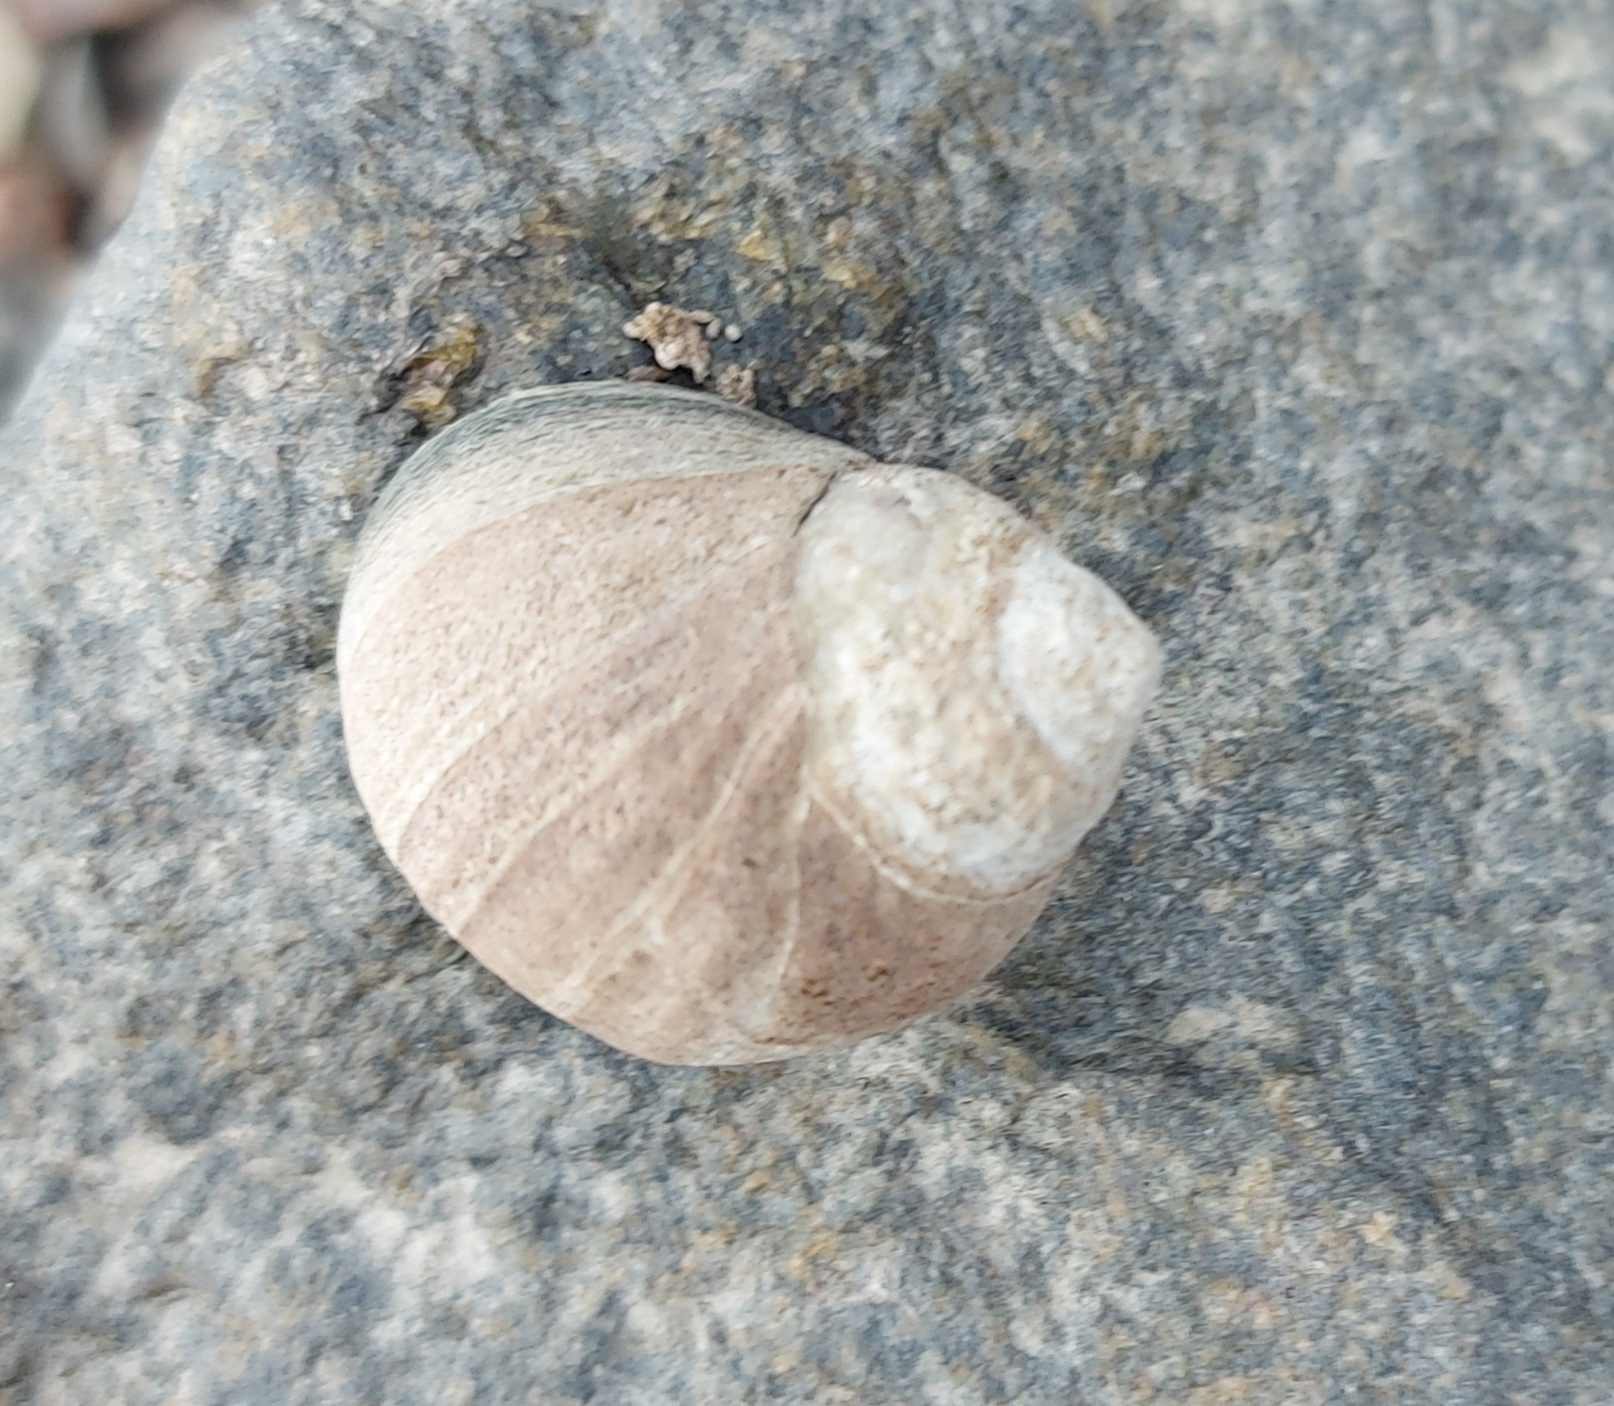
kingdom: Animalia
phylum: Mollusca
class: Gastropoda
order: Littorinimorpha
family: Littorinidae
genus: Littorina
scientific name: Littorina littorea
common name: Common periwinkle
